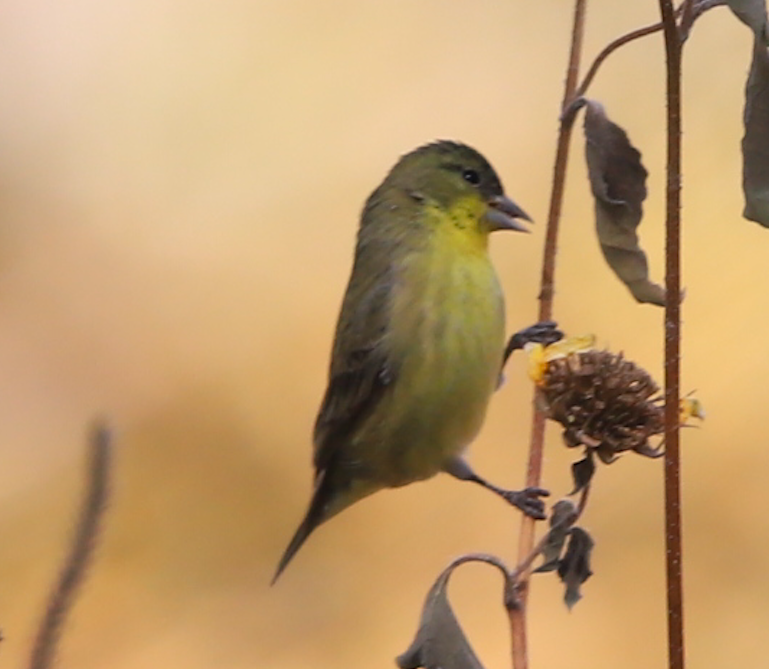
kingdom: Animalia
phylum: Chordata
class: Aves
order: Passeriformes
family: Fringillidae
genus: Spinus
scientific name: Spinus psaltria
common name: Lesser goldfinch
